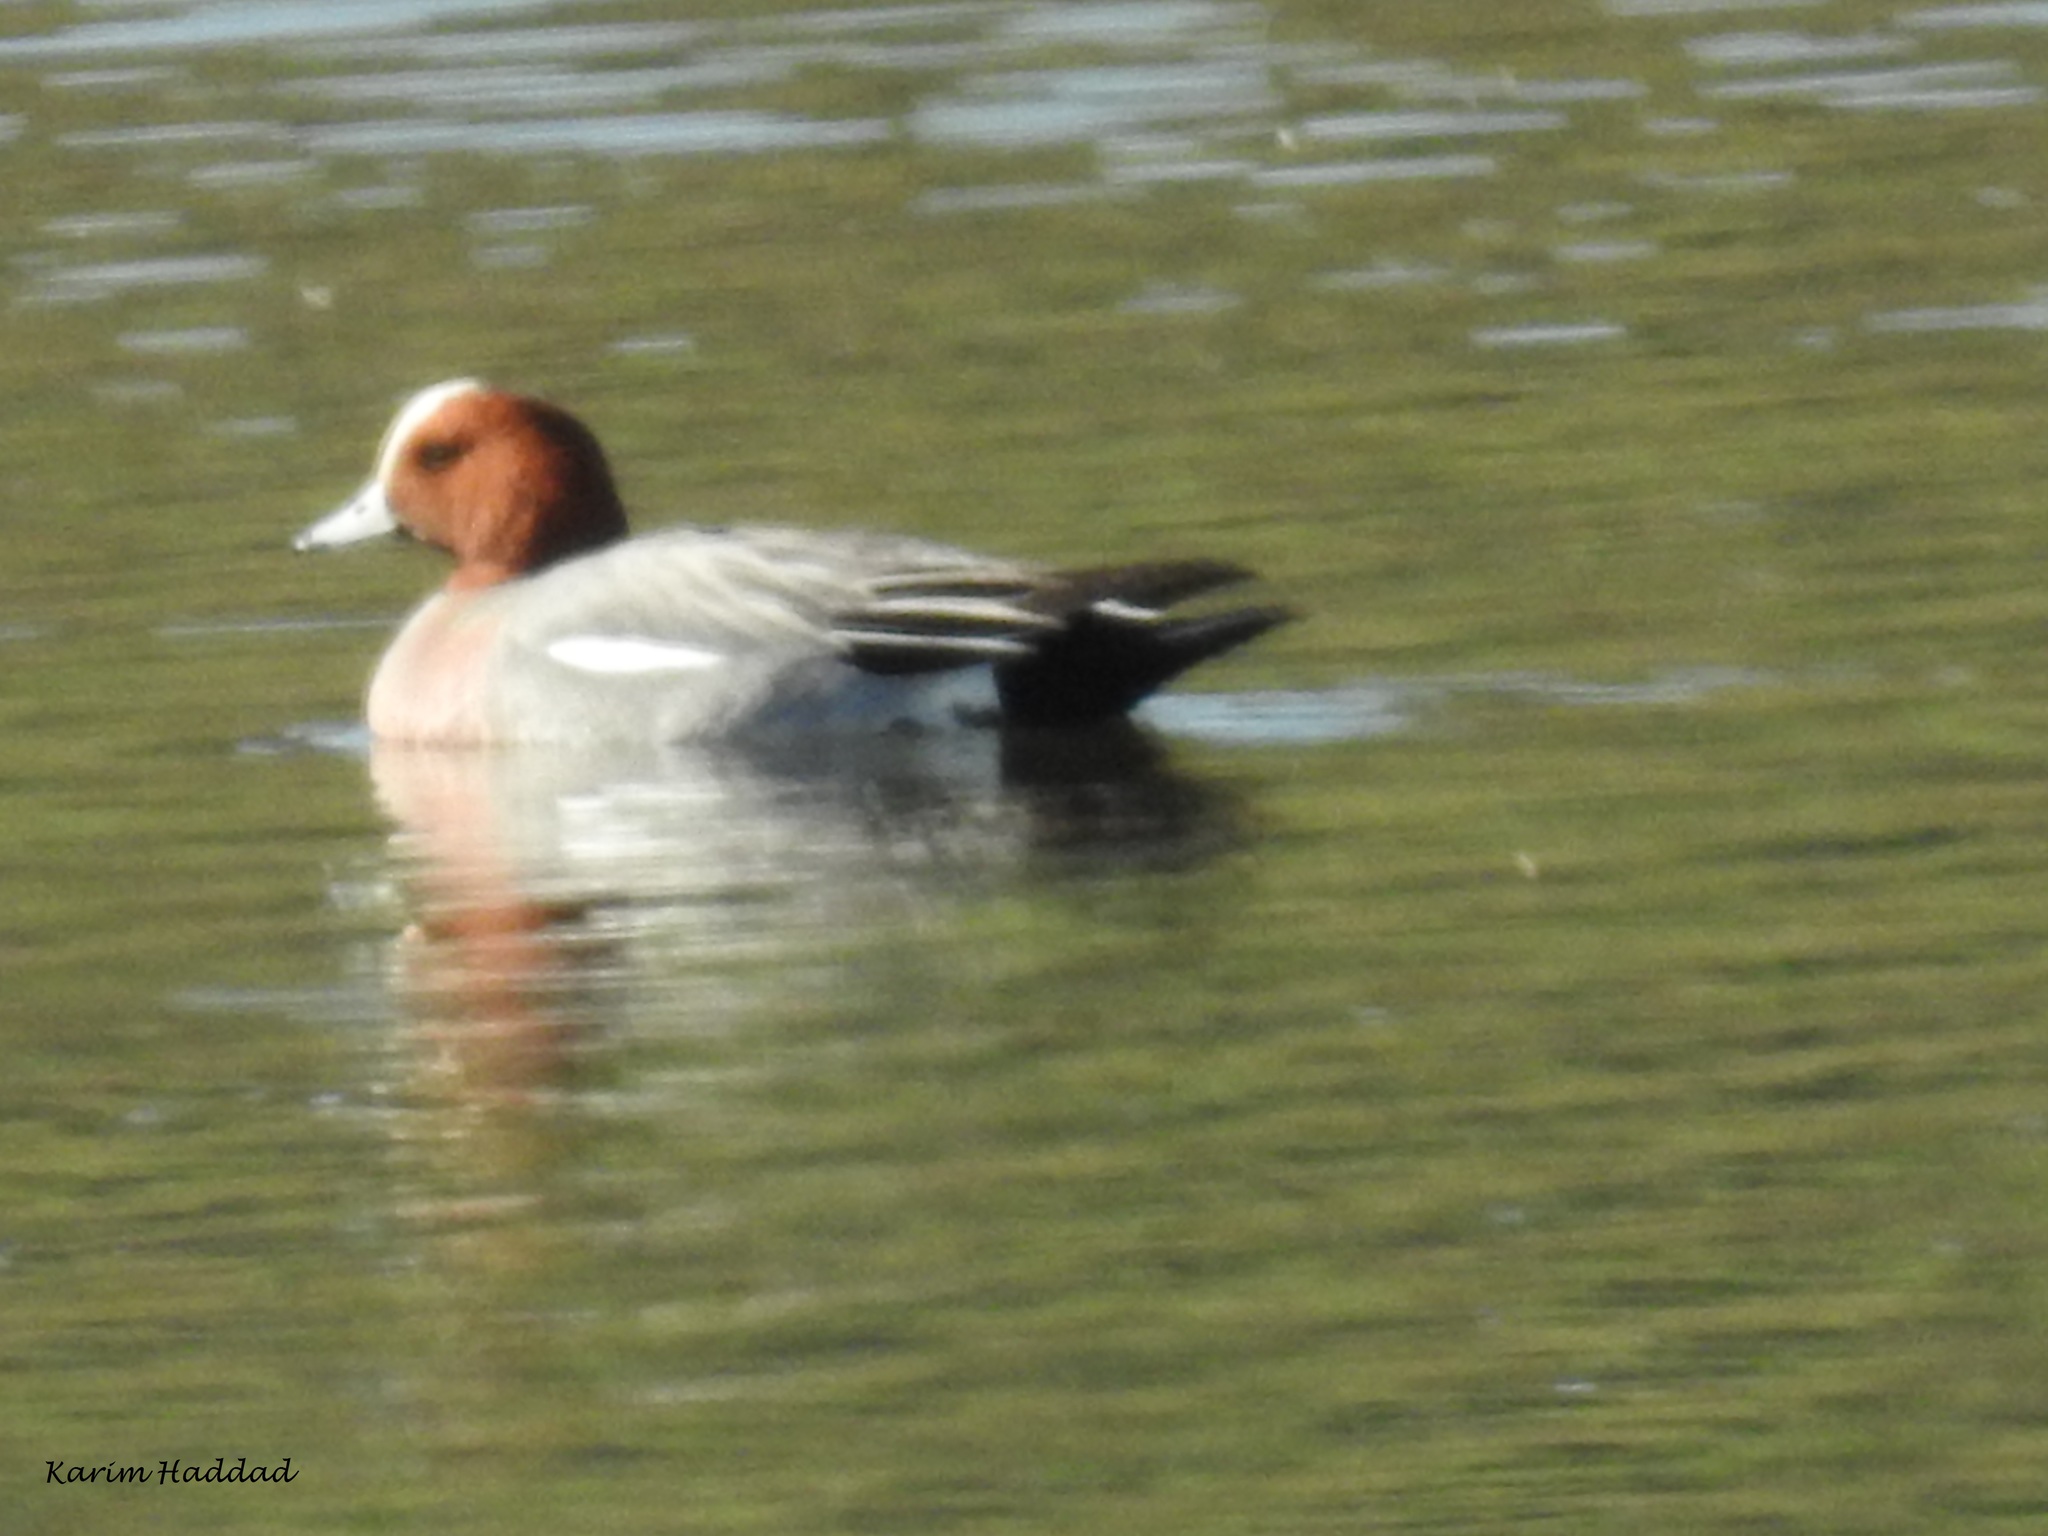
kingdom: Animalia
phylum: Chordata
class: Aves
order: Anseriformes
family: Anatidae
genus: Mareca
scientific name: Mareca penelope
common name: Eurasian wigeon
